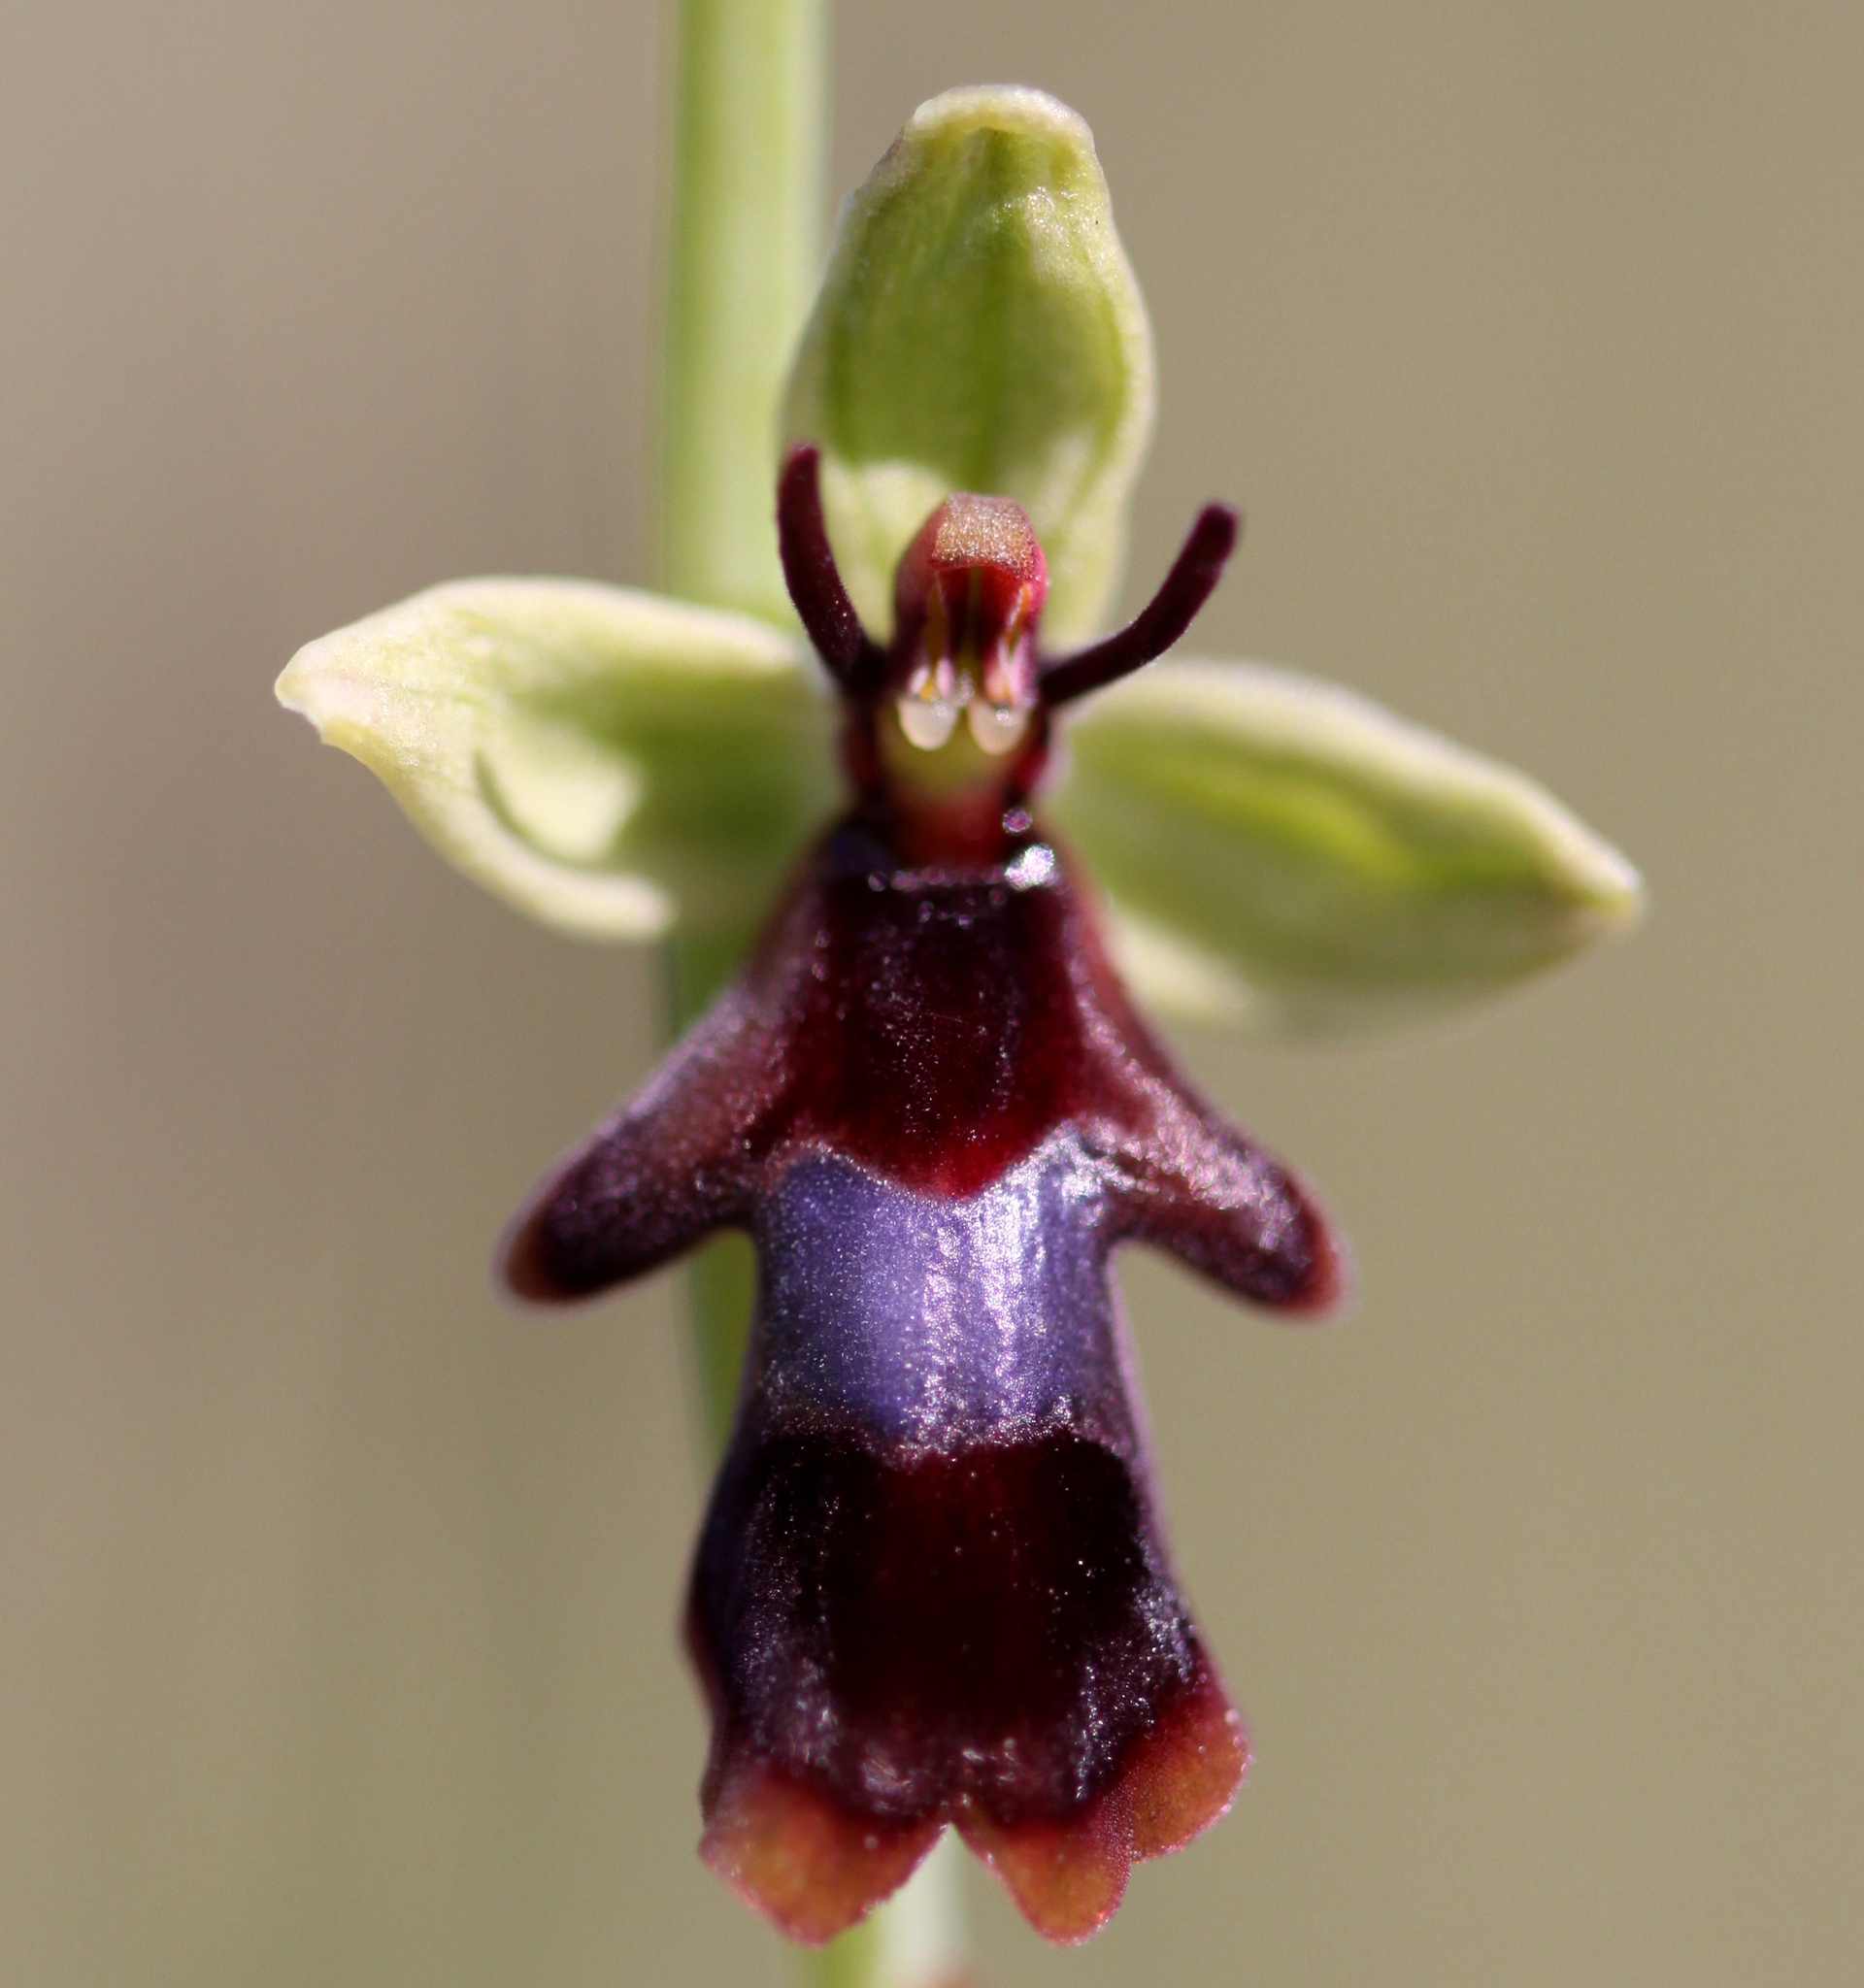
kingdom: Plantae
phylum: Tracheophyta
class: Liliopsida
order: Asparagales
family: Orchidaceae
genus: Ophrys
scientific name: Ophrys insectifera
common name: Fly orchid
